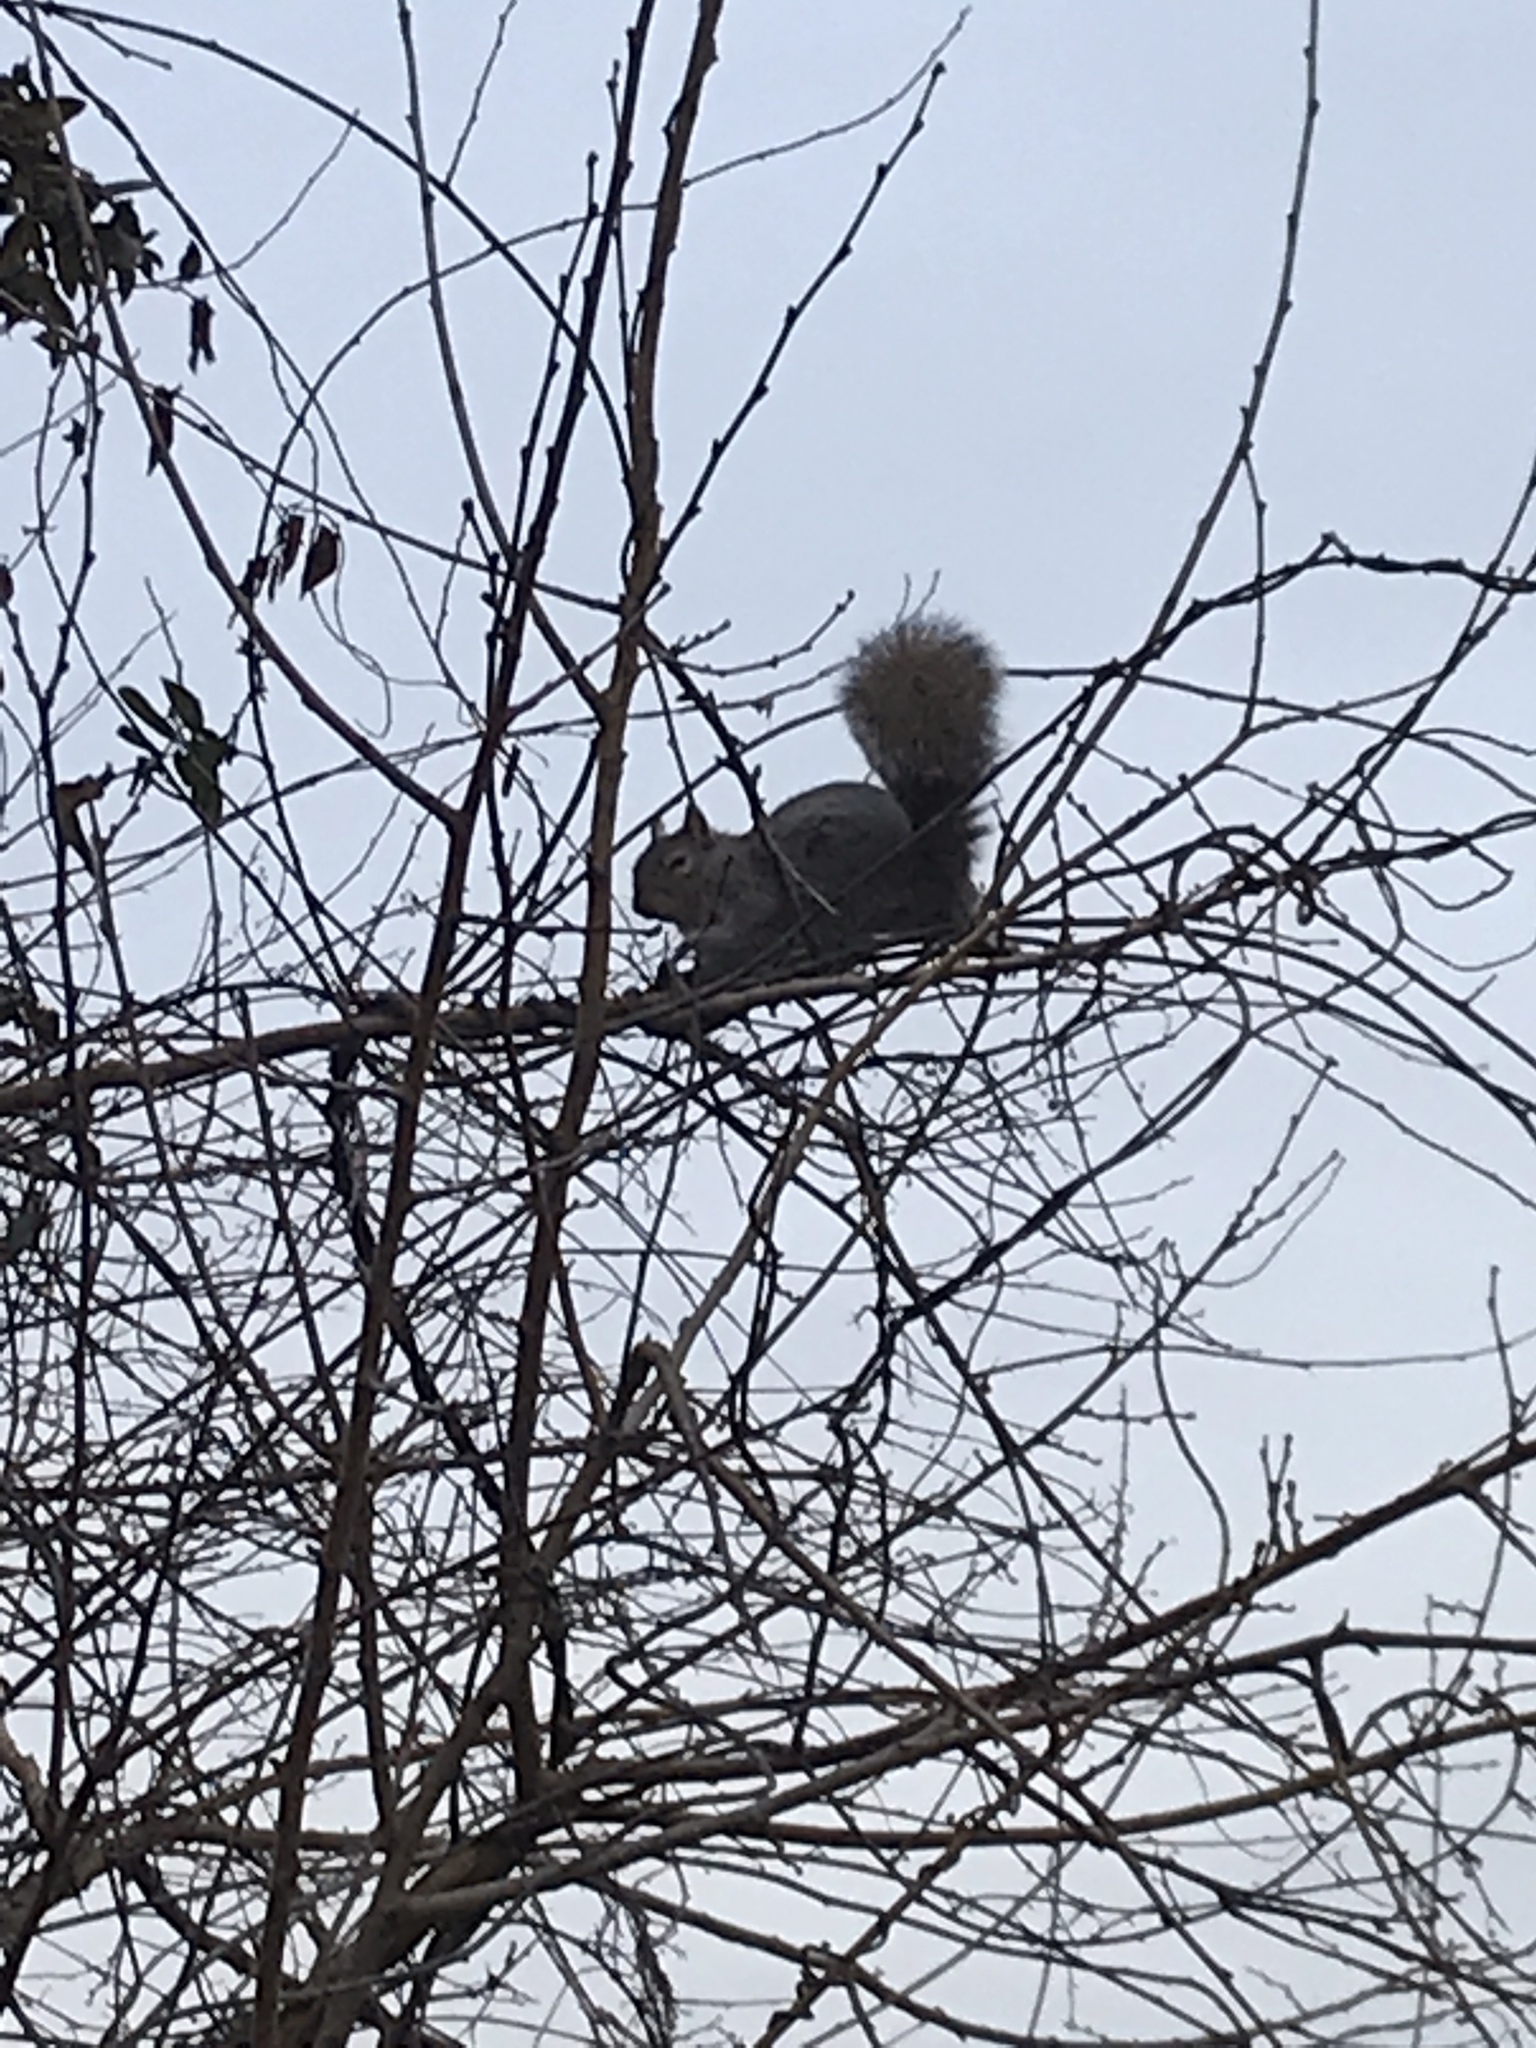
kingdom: Animalia
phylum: Chordata
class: Mammalia
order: Rodentia
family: Sciuridae
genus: Sciurus
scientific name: Sciurus carolinensis
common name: Eastern gray squirrel
